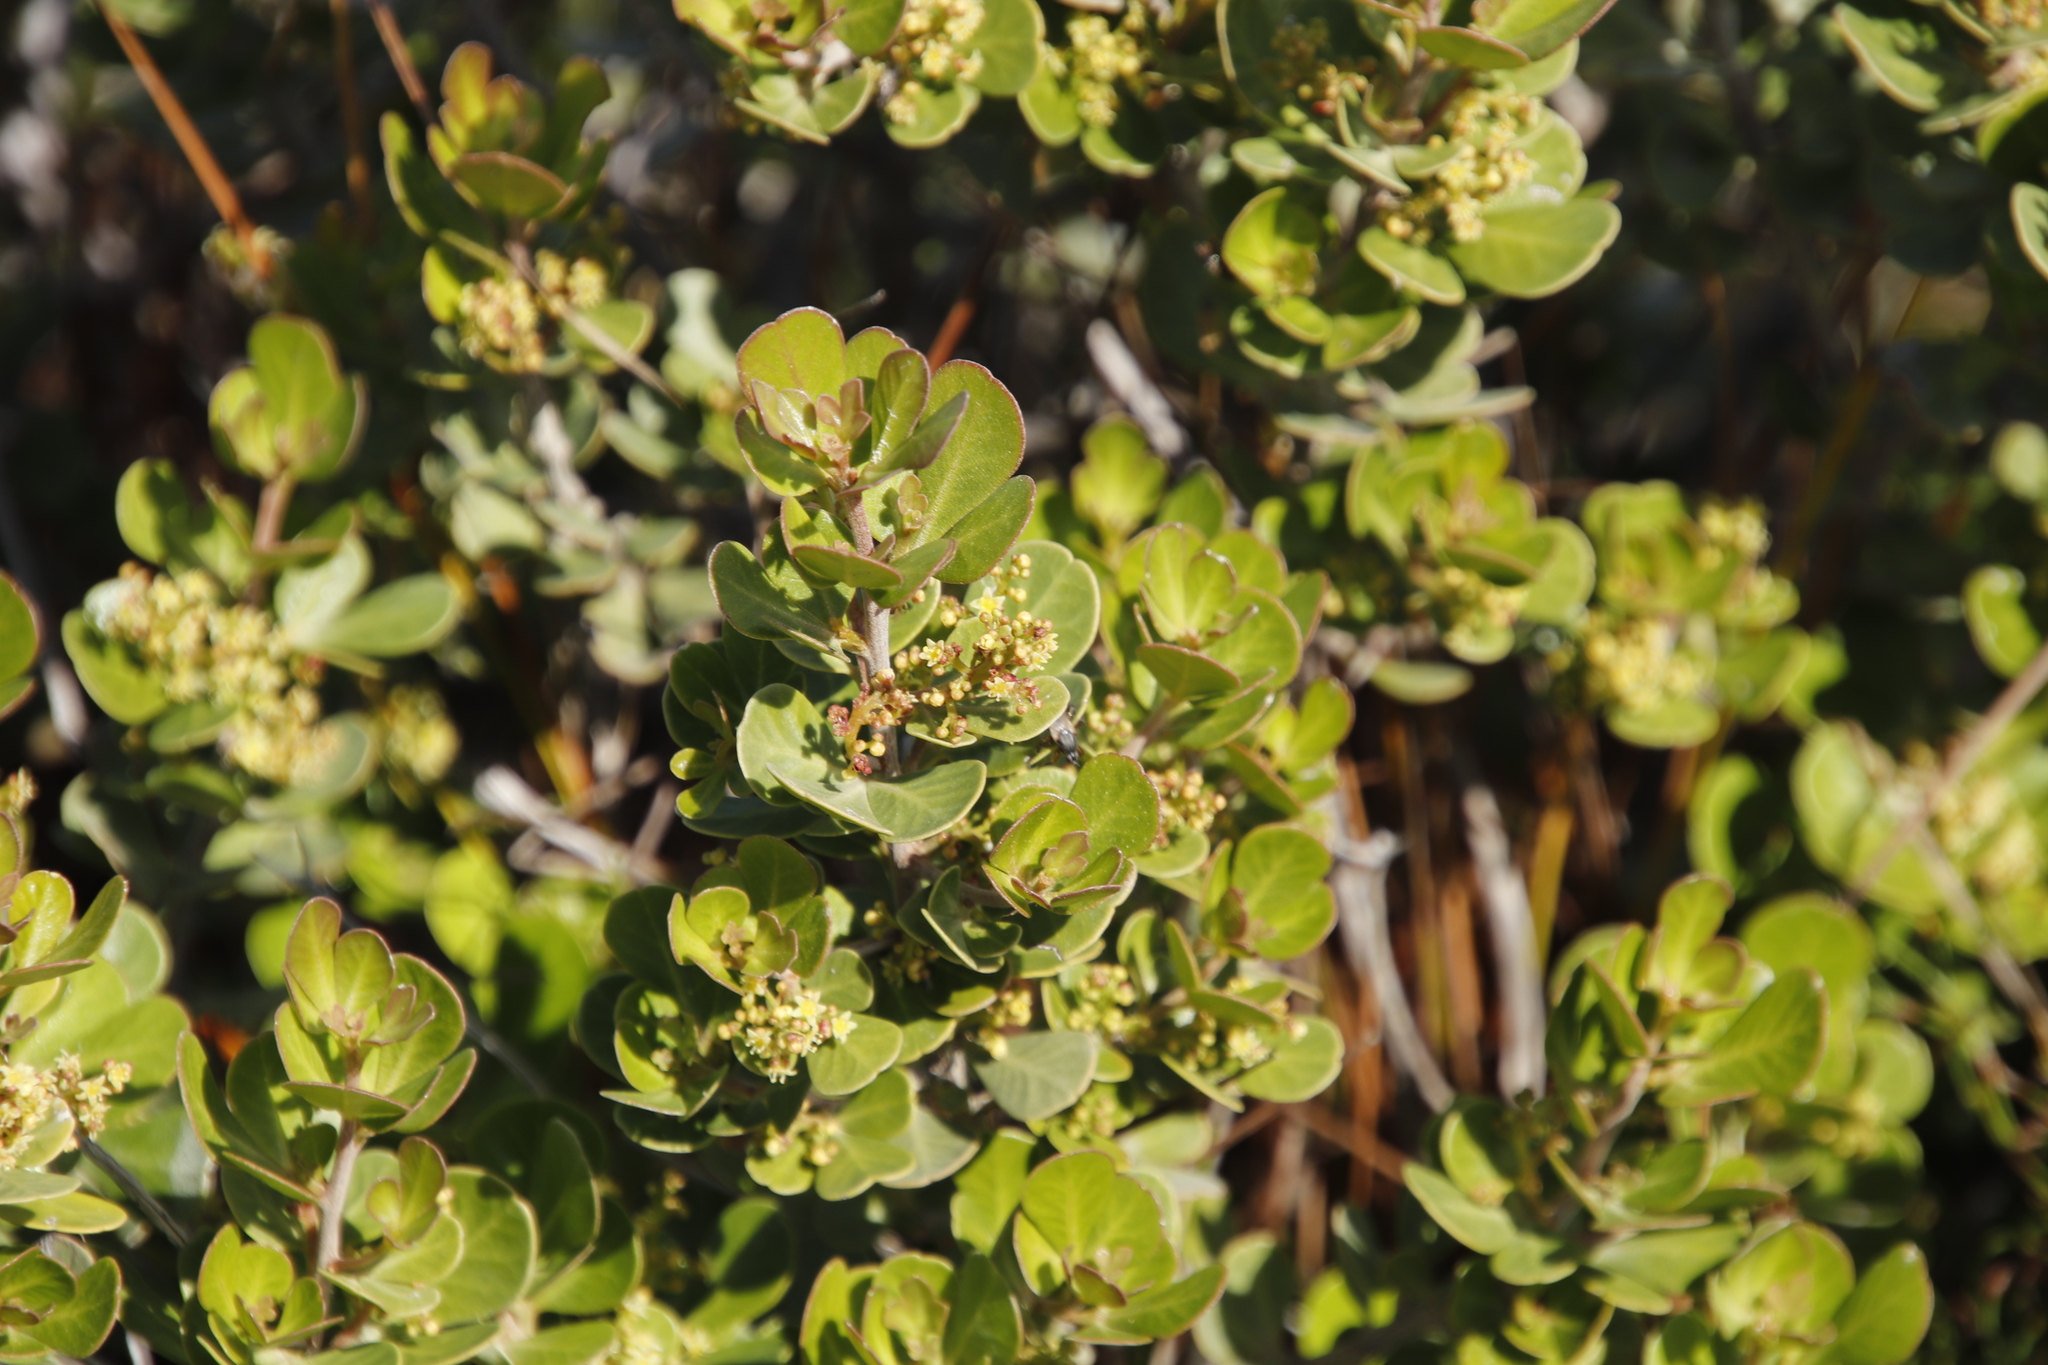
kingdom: Plantae
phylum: Tracheophyta
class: Magnoliopsida
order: Sapindales
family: Anacardiaceae
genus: Searsia
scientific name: Searsia lucida
